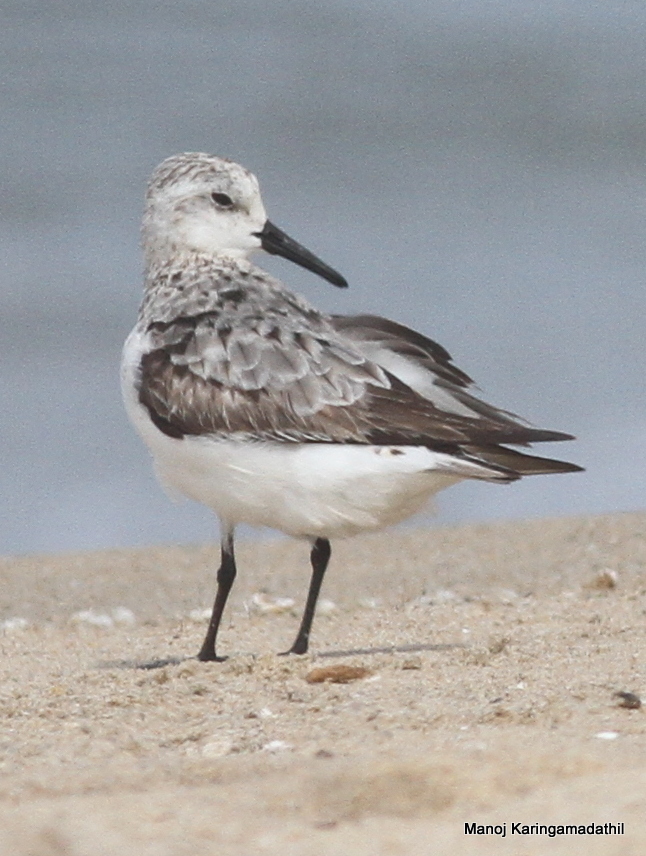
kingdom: Animalia
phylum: Chordata
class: Aves
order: Charadriiformes
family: Scolopacidae
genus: Calidris
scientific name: Calidris alba
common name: Sanderling
